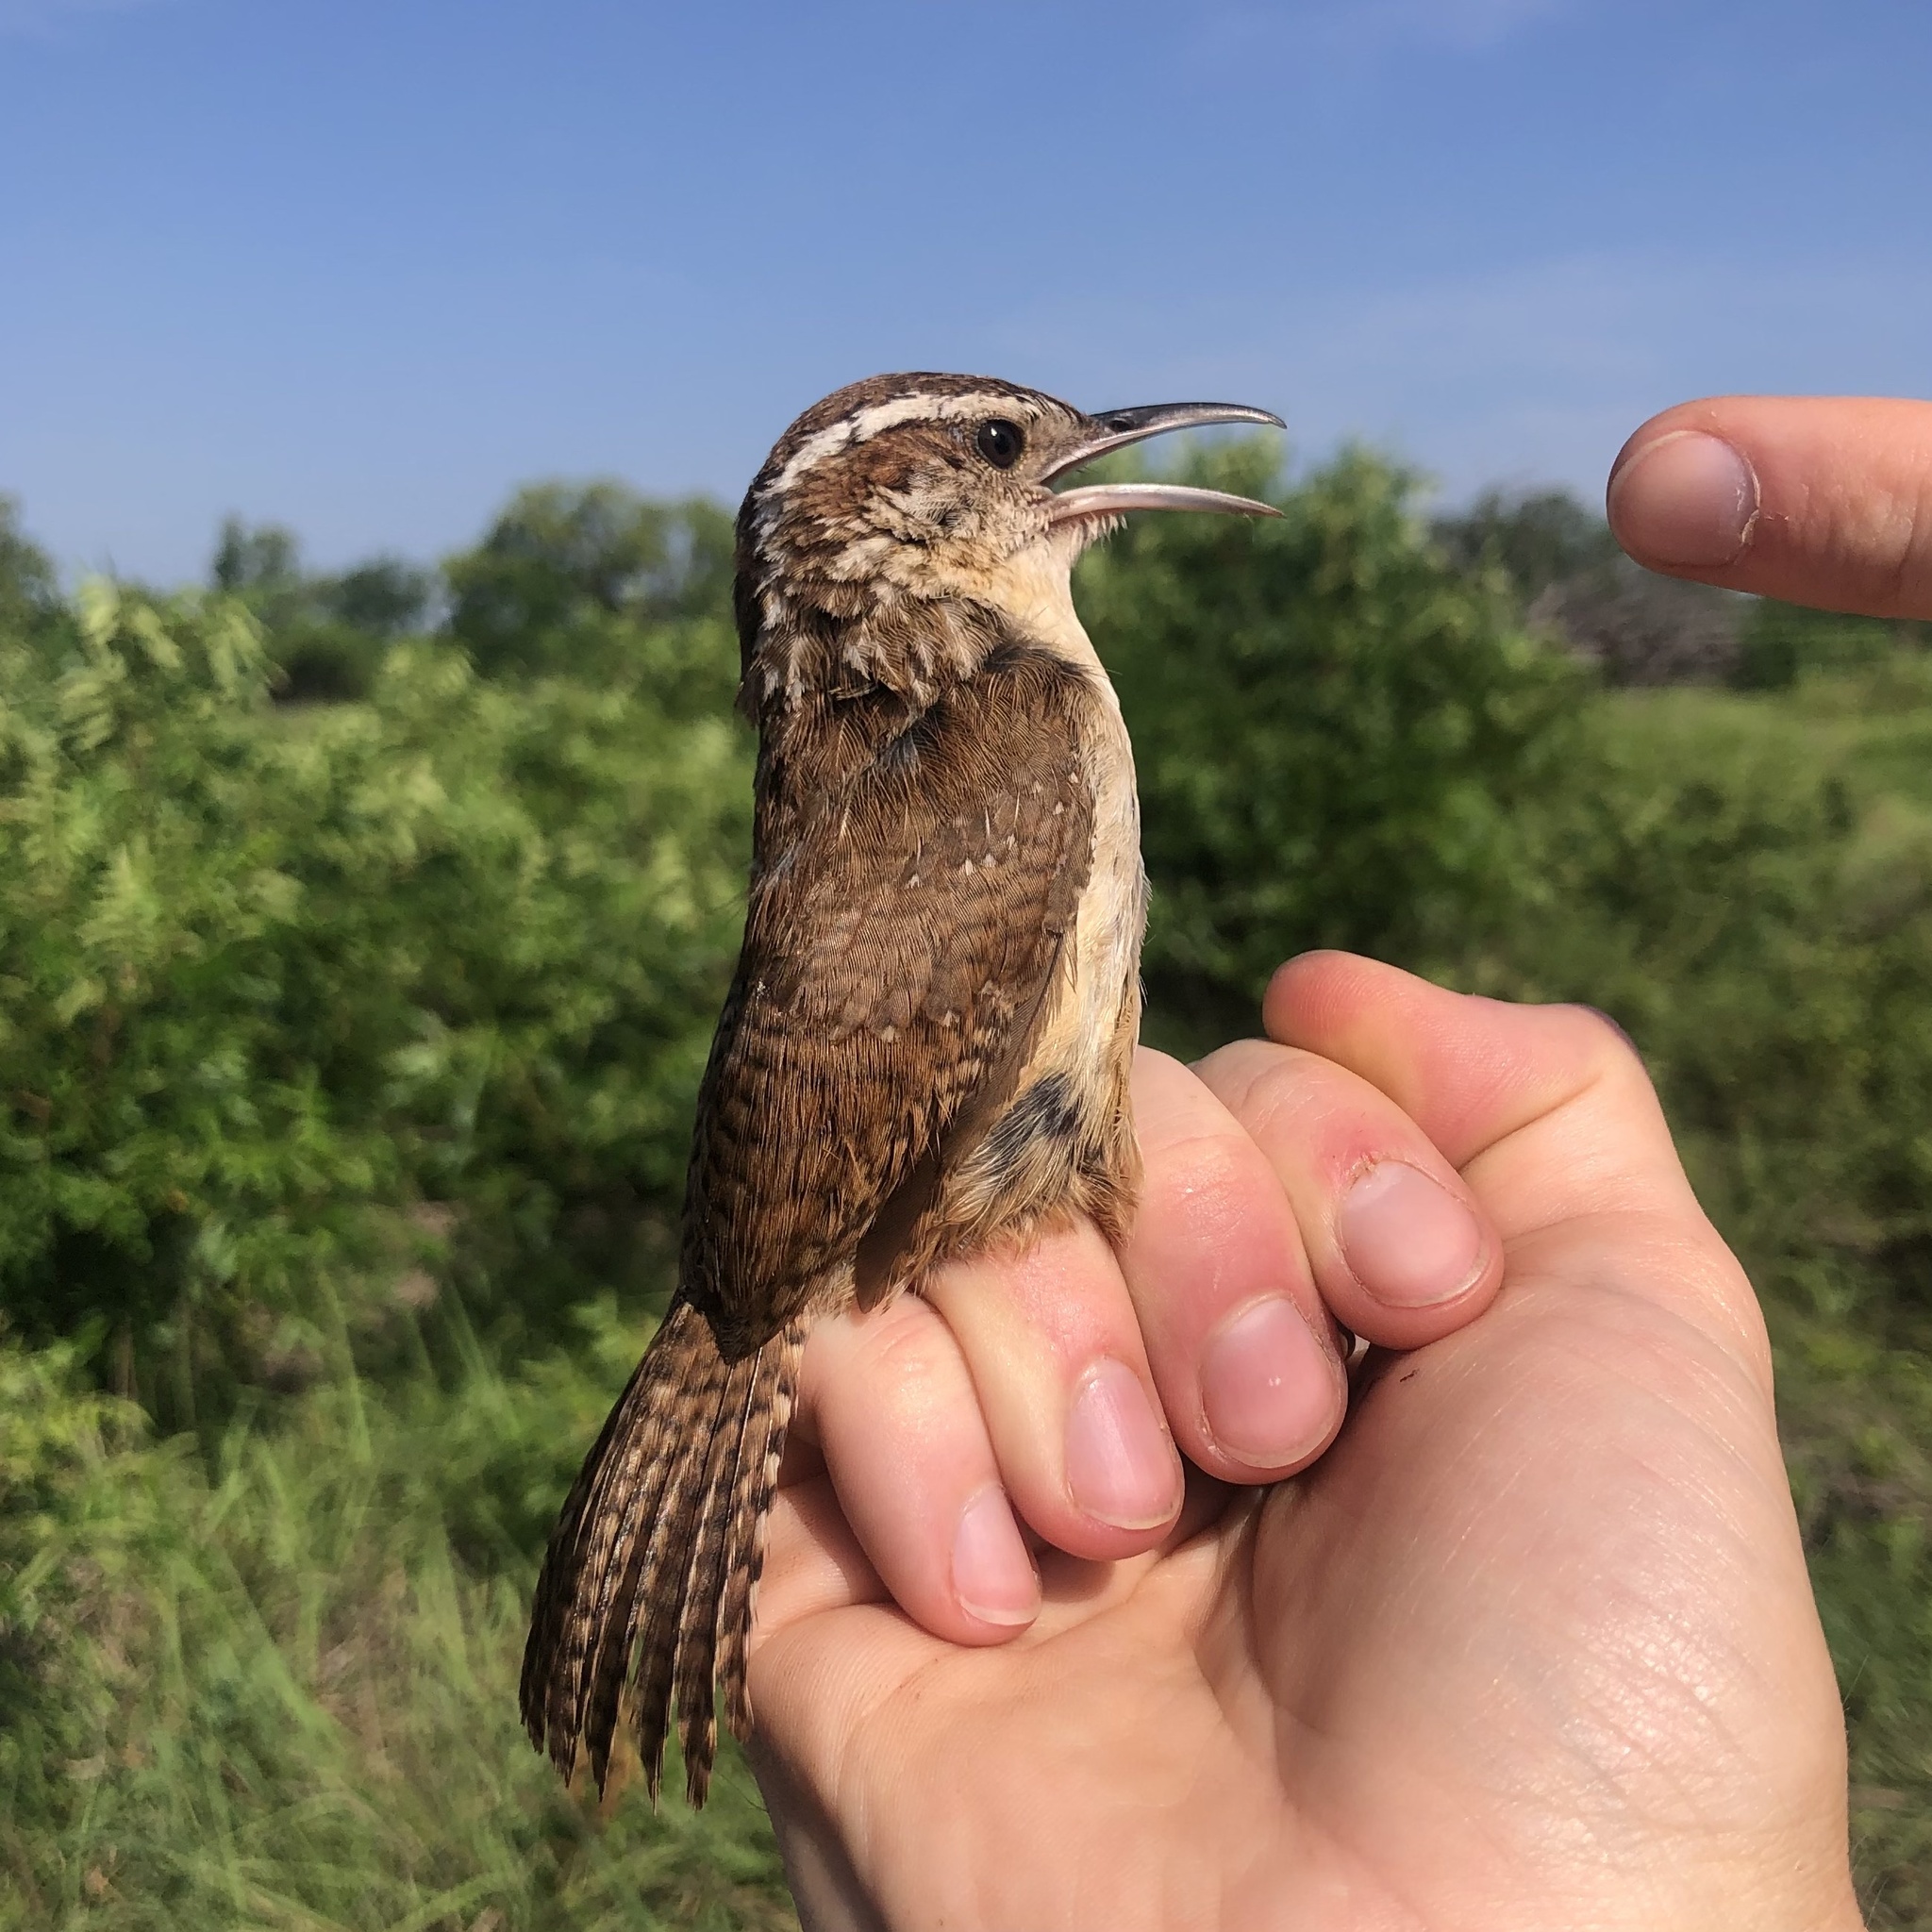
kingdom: Animalia
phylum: Chordata
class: Aves
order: Passeriformes
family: Troglodytidae
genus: Thryothorus
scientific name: Thryothorus ludovicianus
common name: Carolina wren
